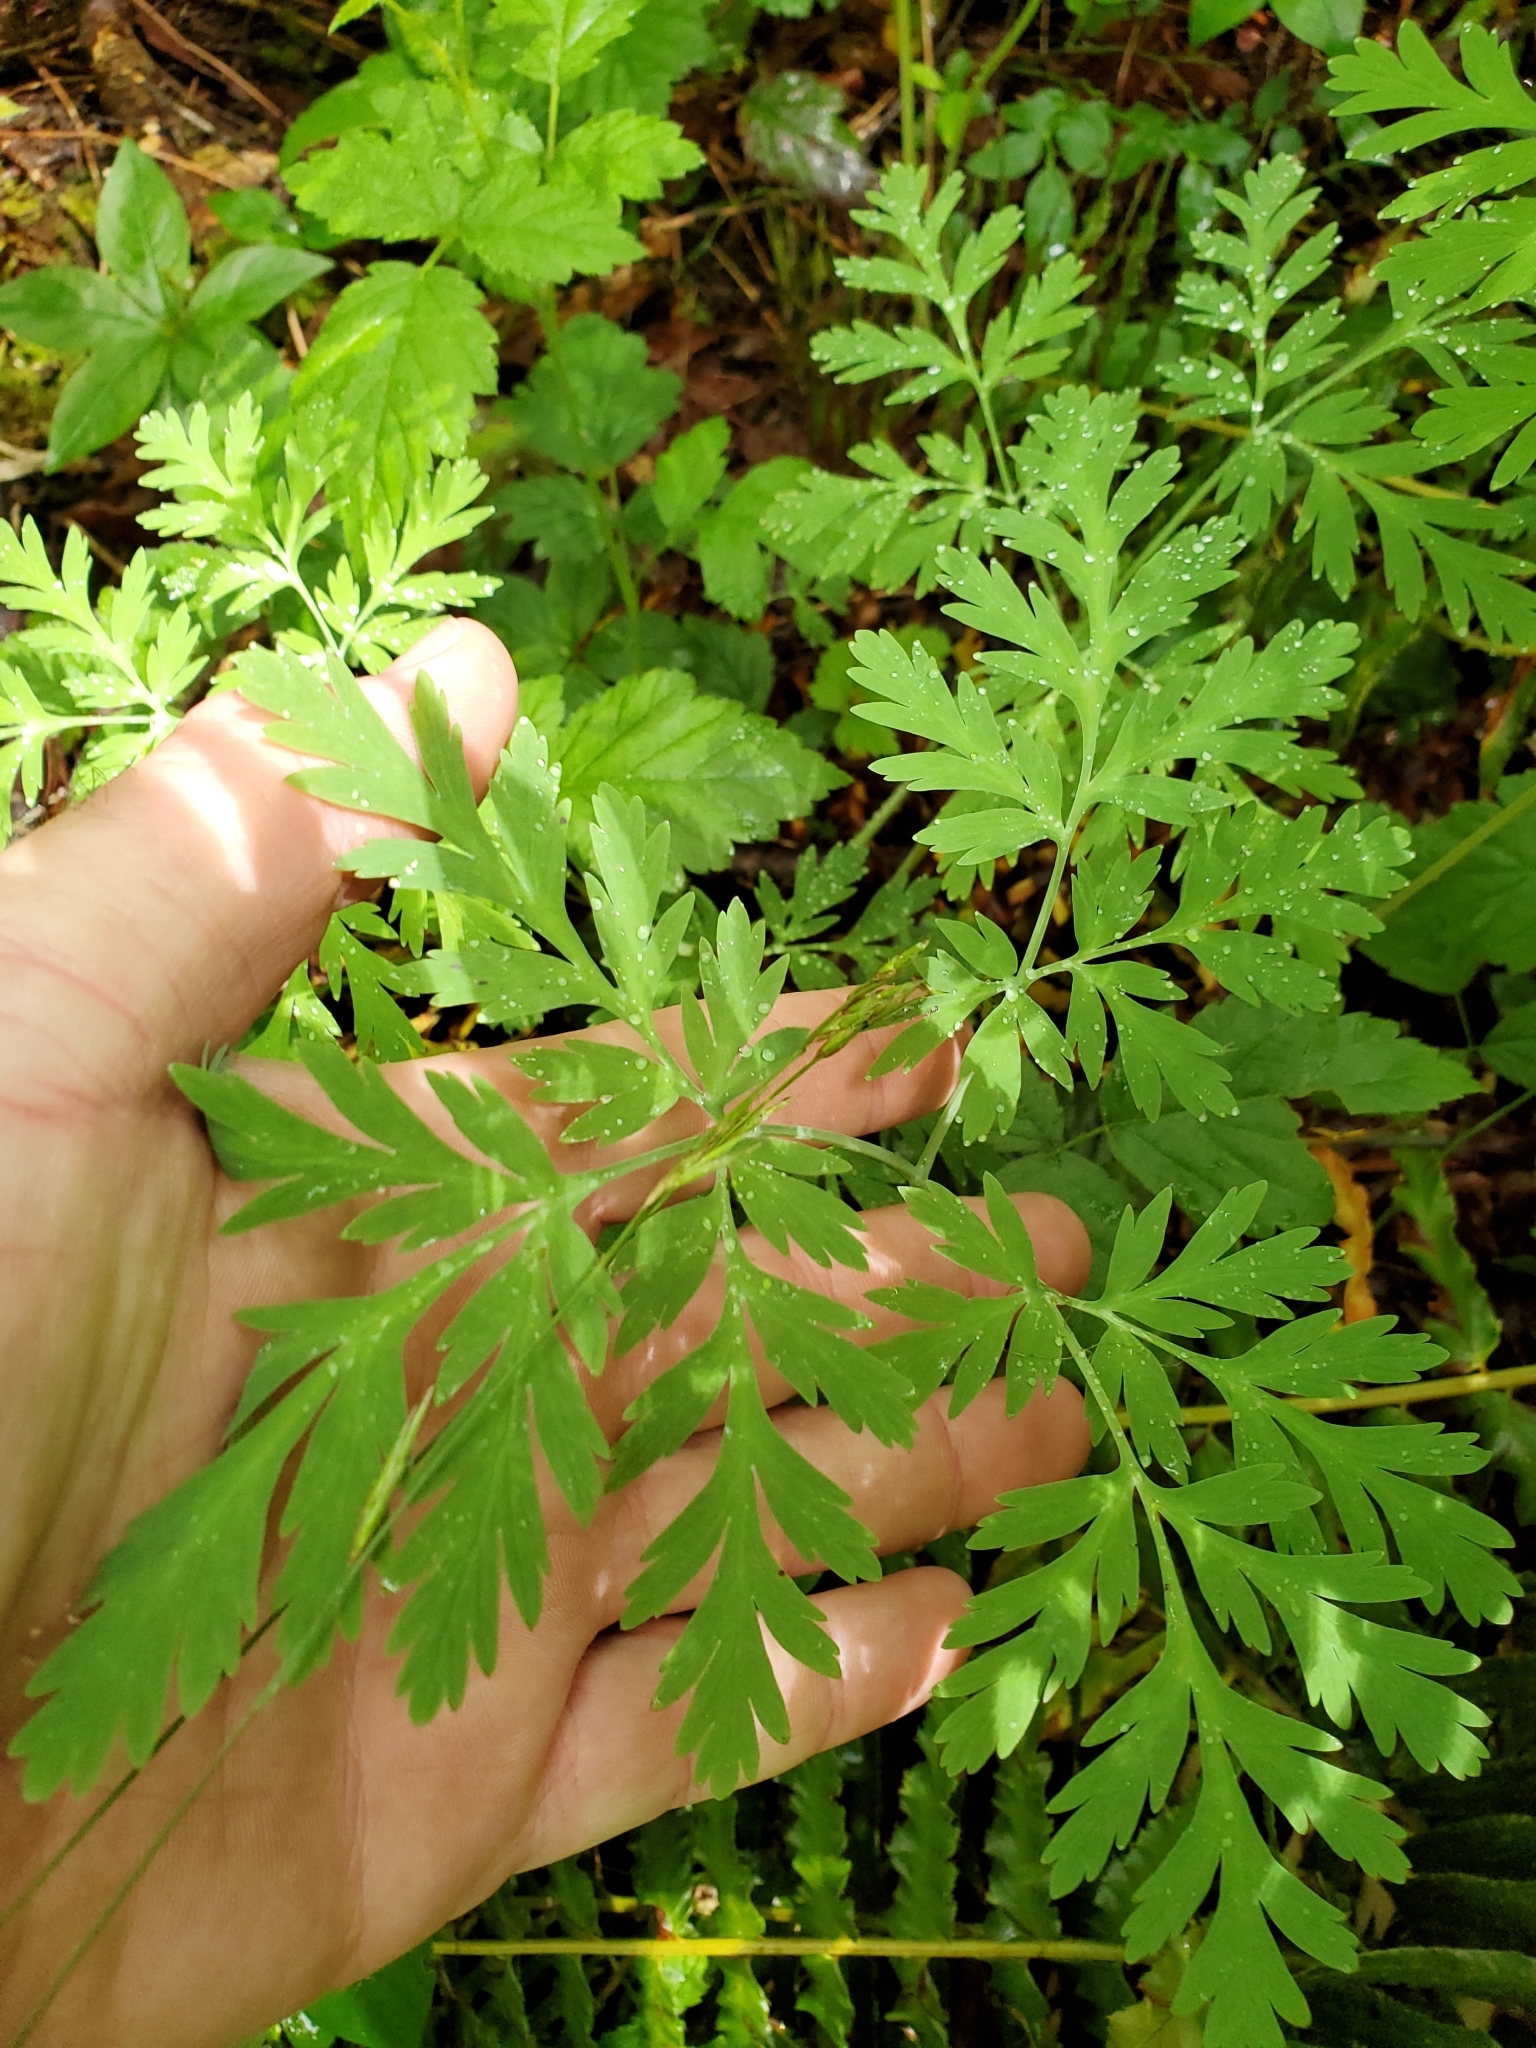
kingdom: Plantae
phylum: Tracheophyta
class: Magnoliopsida
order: Ranunculales
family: Papaveraceae
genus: Dicentra
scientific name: Dicentra formosa
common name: Bleeding-heart
